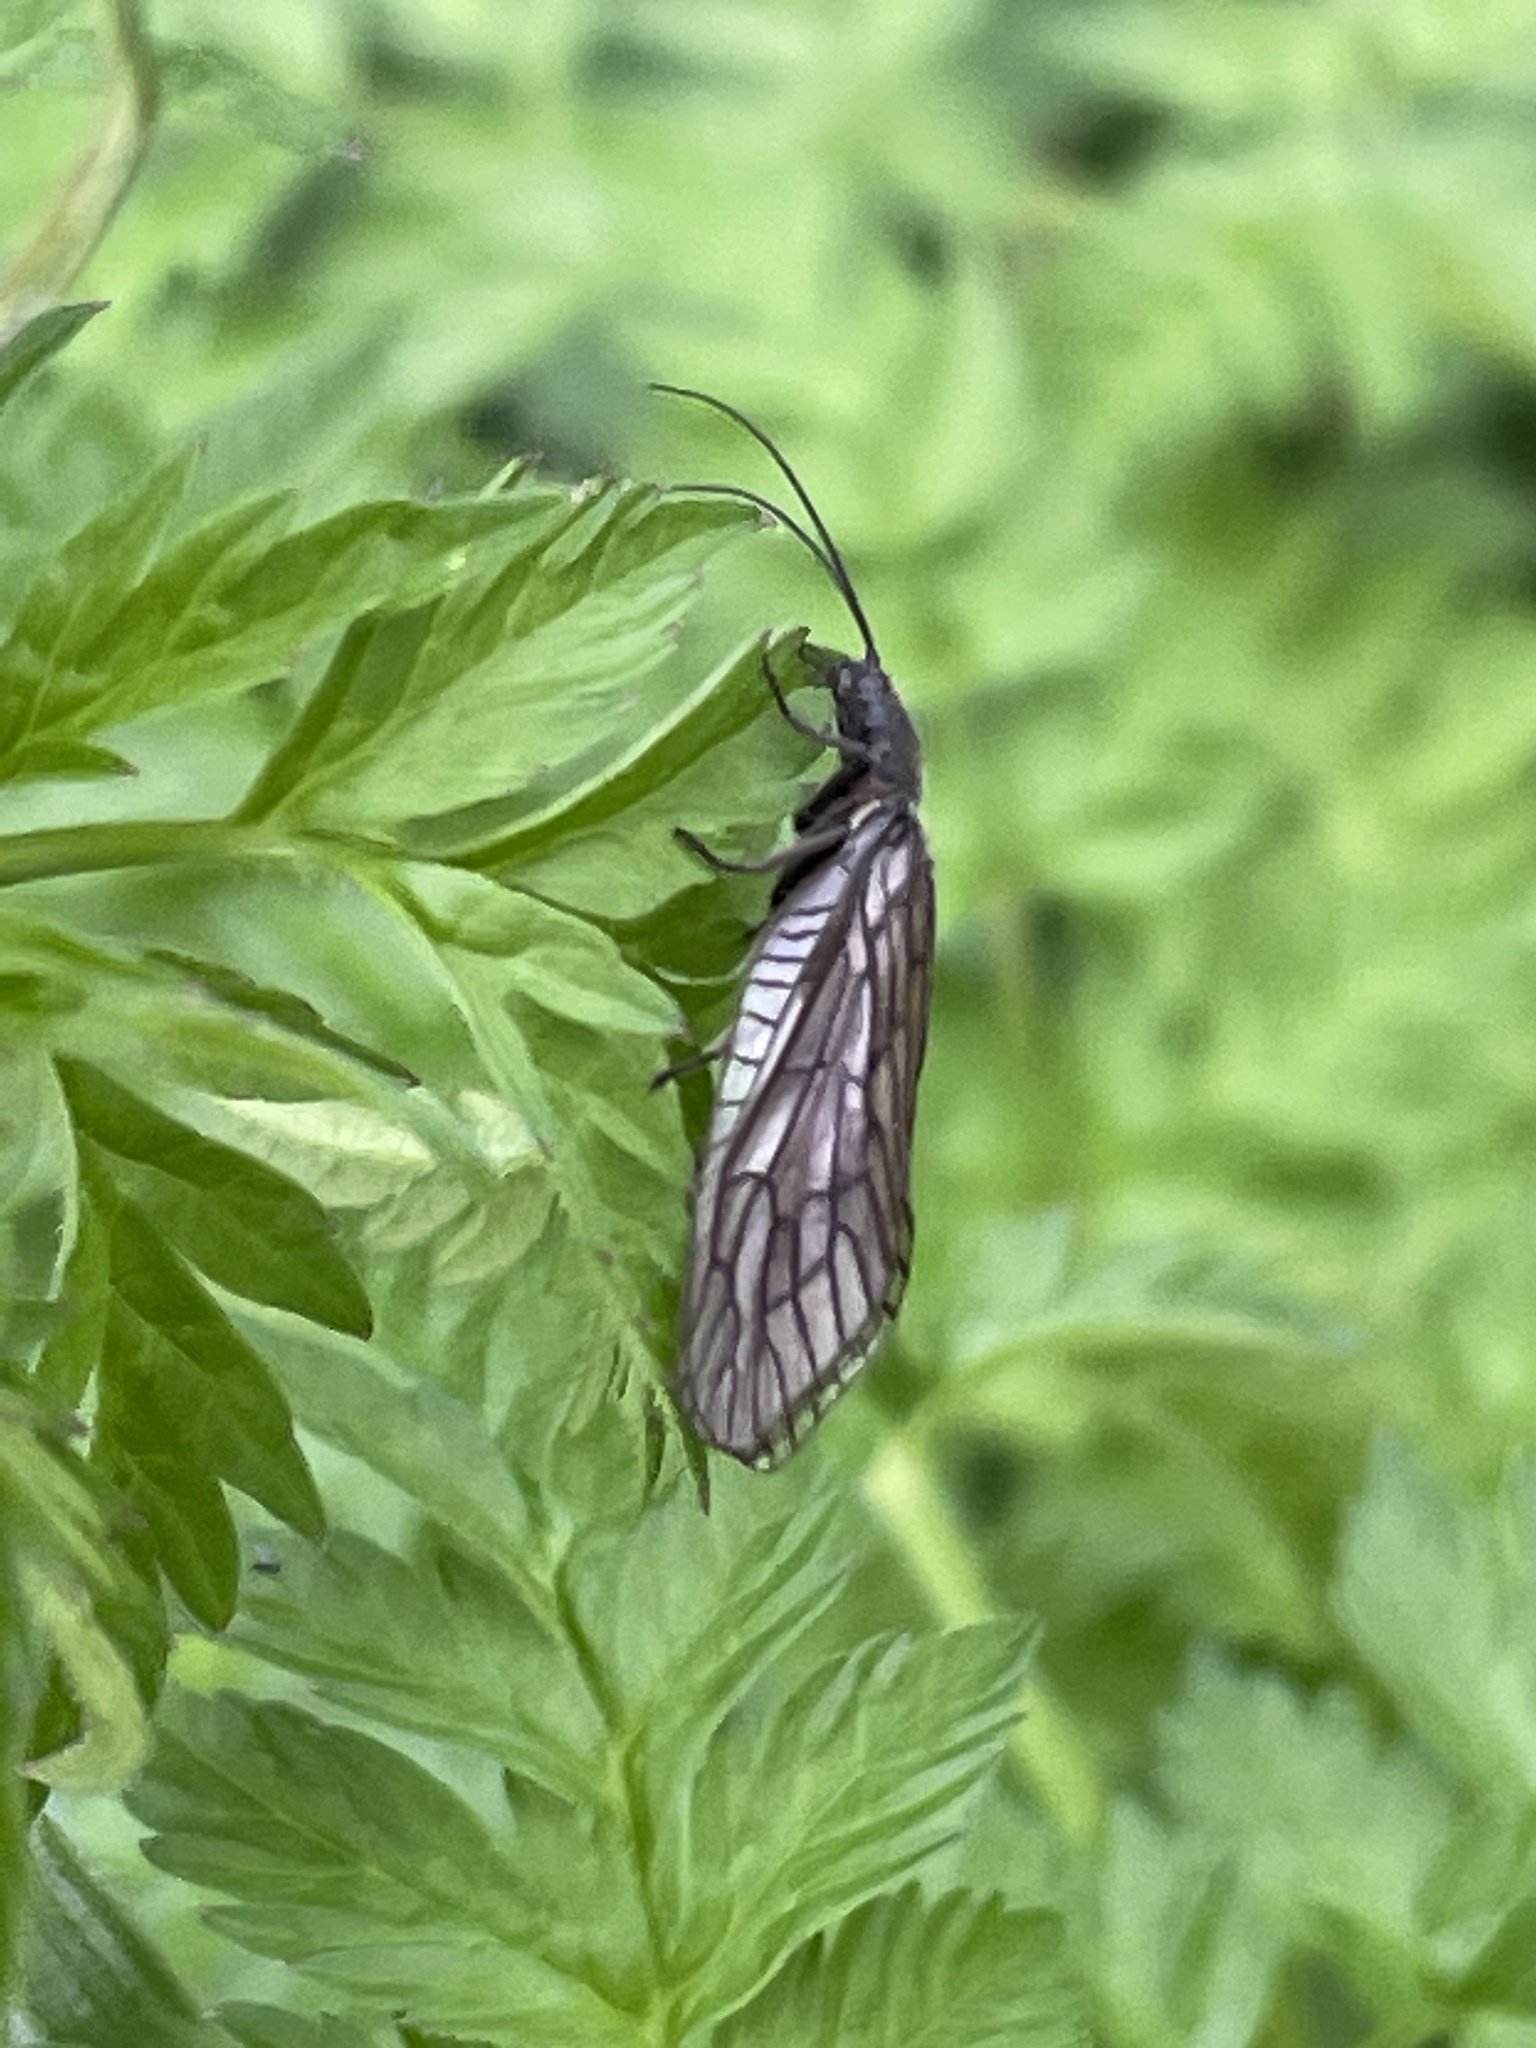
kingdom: Animalia
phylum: Arthropoda
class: Insecta
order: Megaloptera
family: Sialidae
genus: Sialis
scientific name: Sialis
